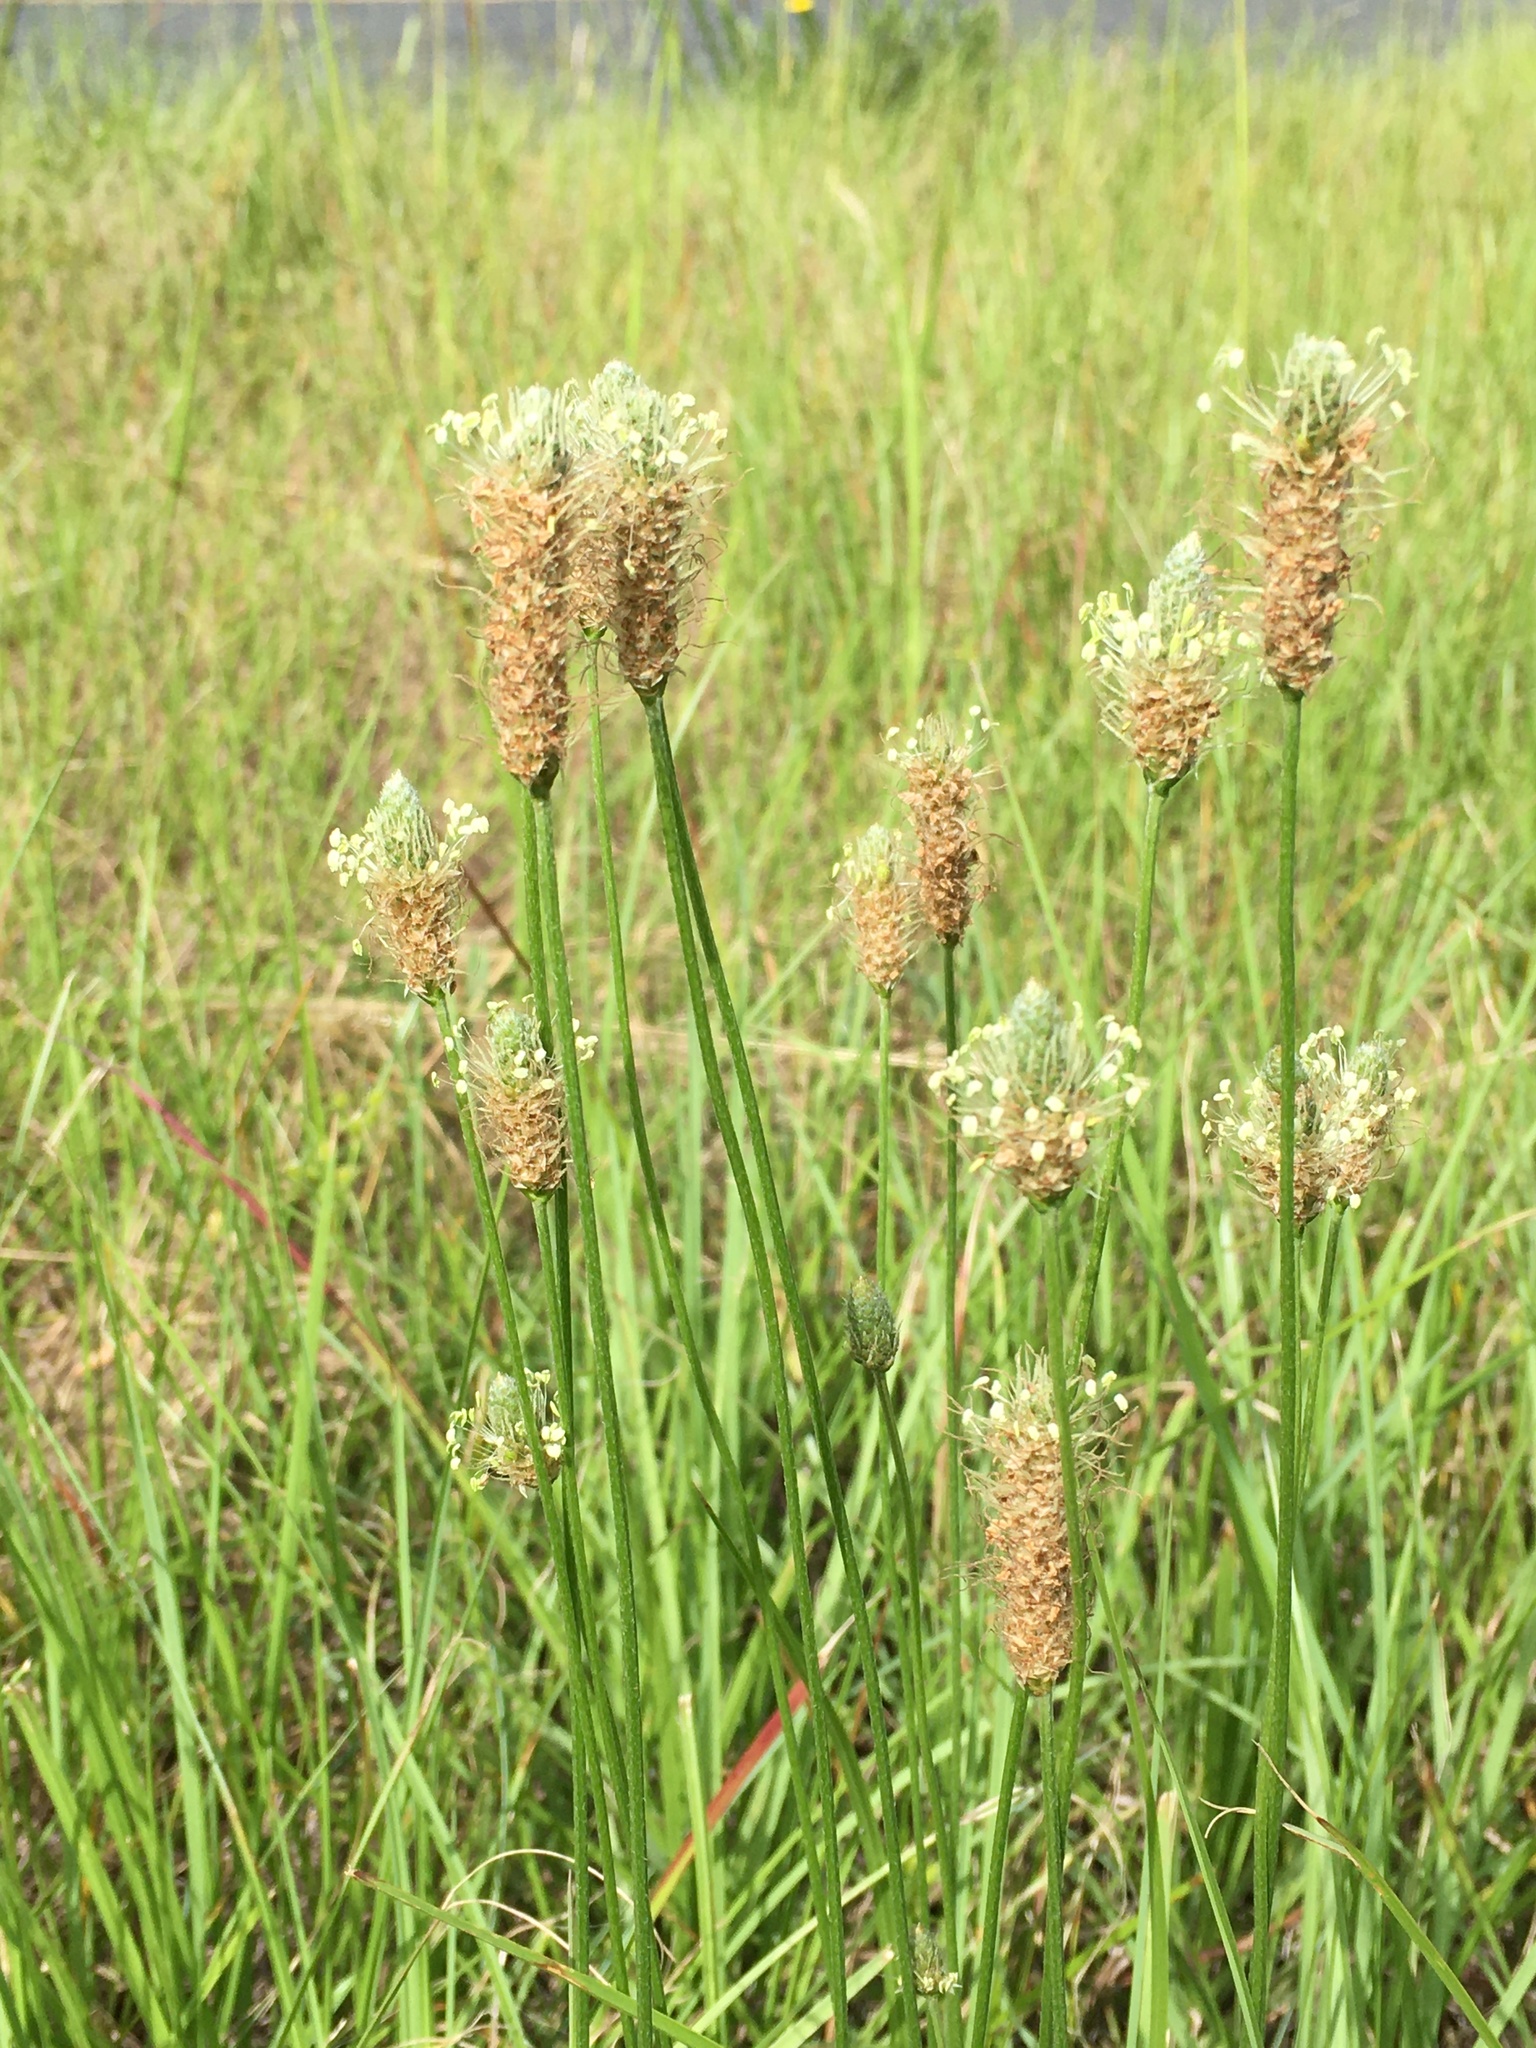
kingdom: Plantae
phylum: Tracheophyta
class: Magnoliopsida
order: Lamiales
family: Plantaginaceae
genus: Plantago
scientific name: Plantago lanceolata
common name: Ribwort plantain
